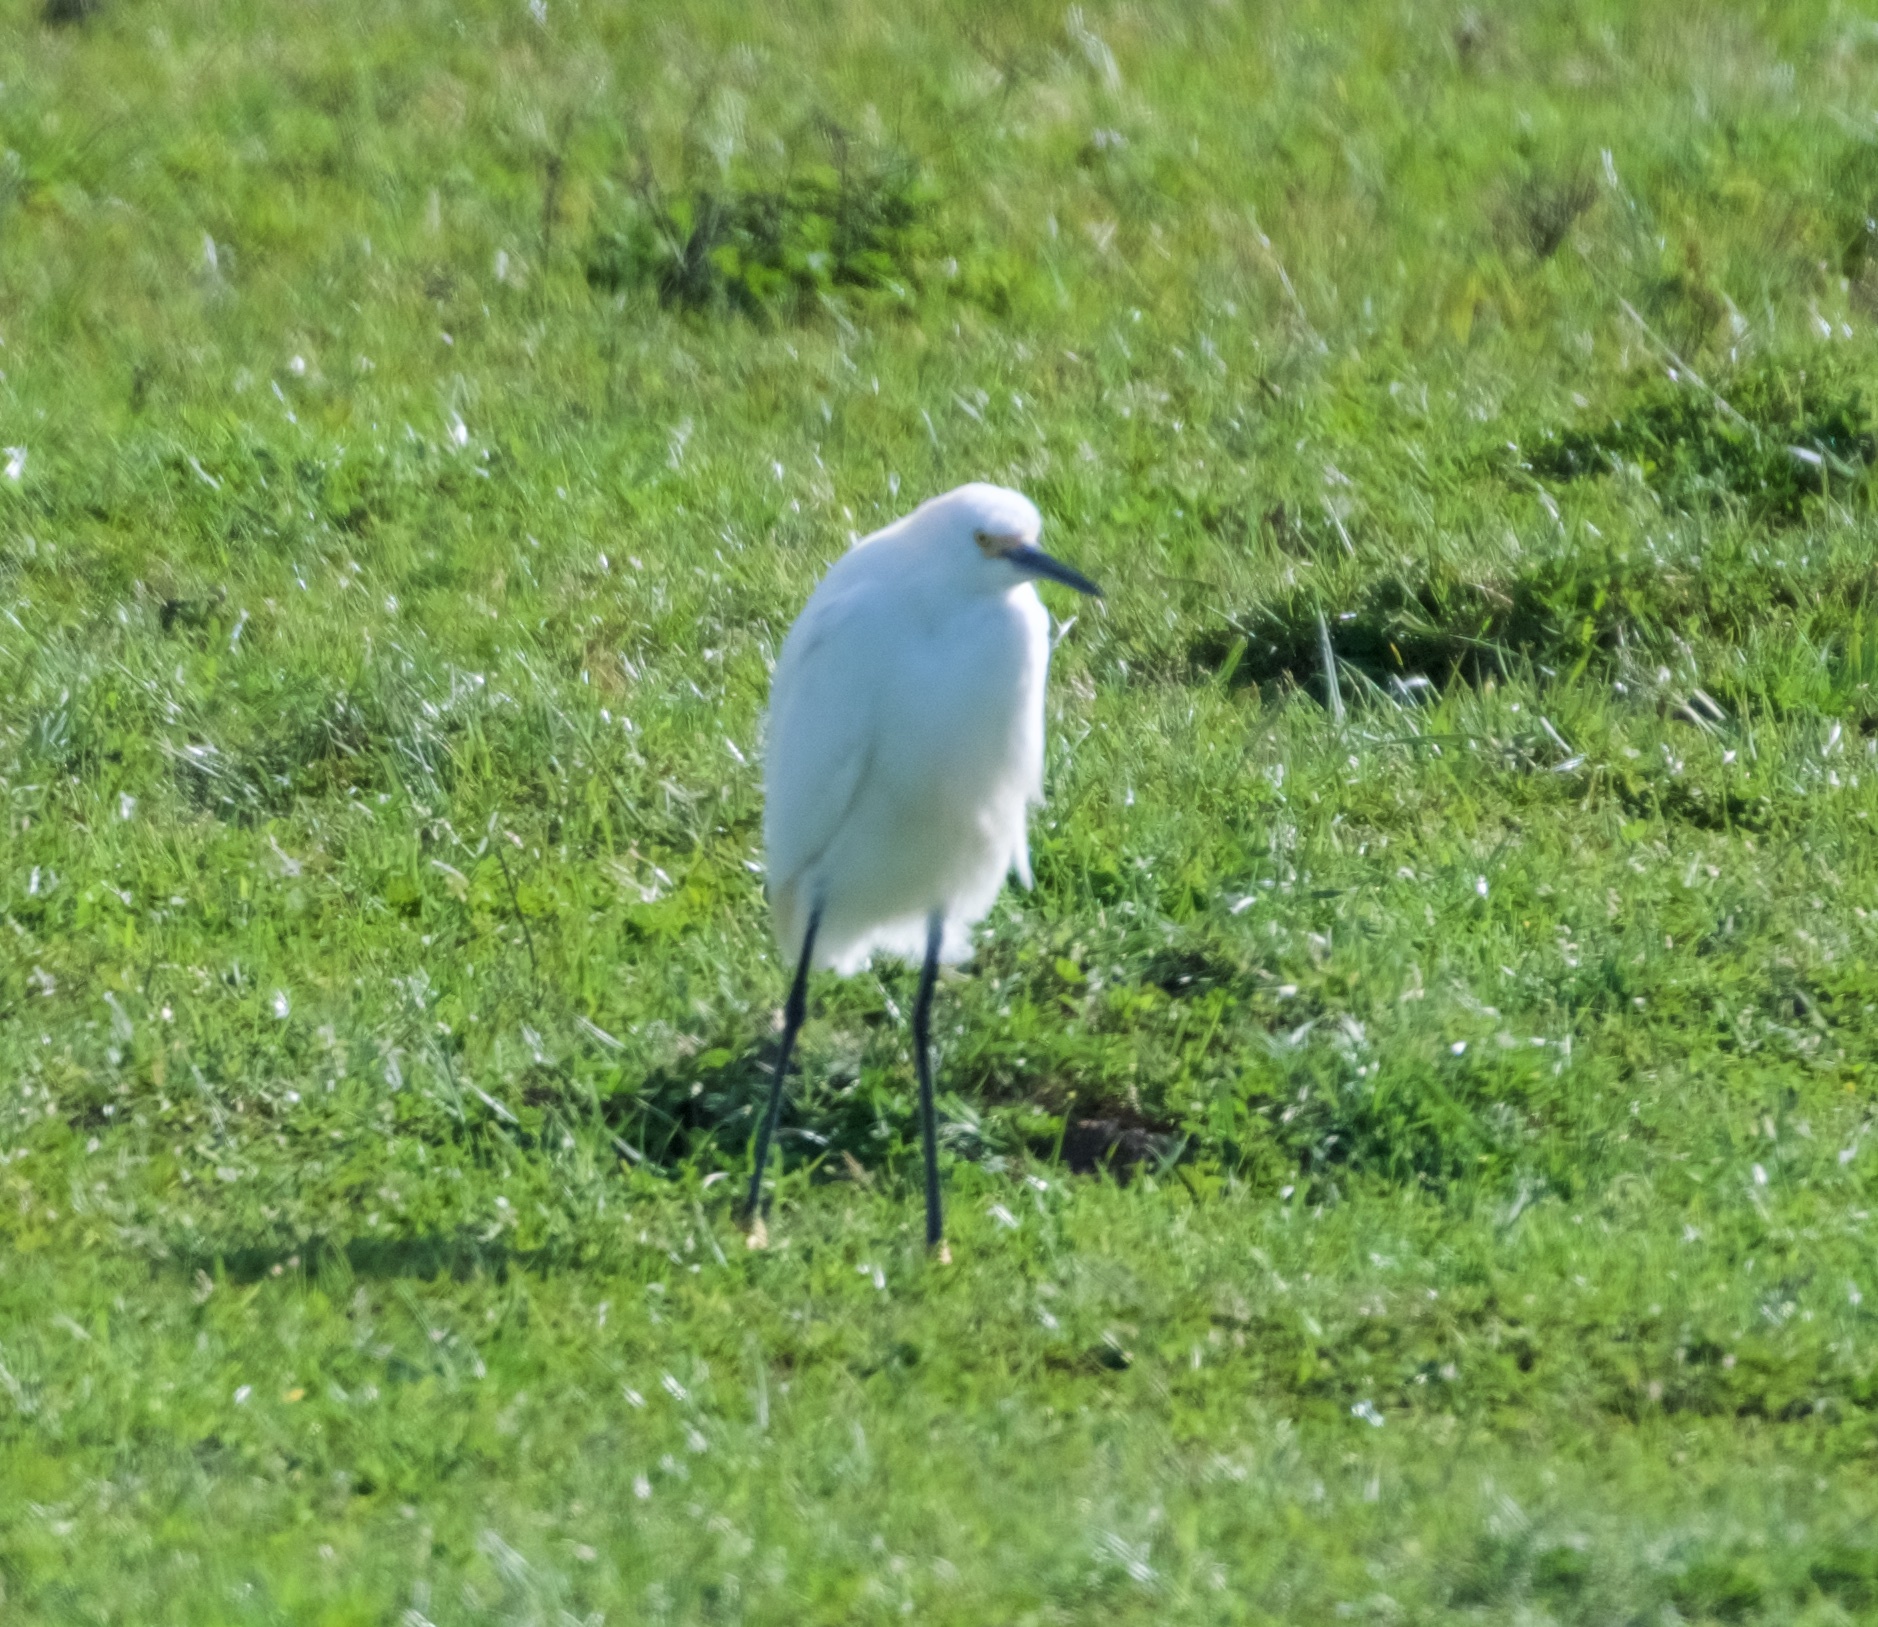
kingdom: Animalia
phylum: Chordata
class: Aves
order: Pelecaniformes
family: Ardeidae
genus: Egretta
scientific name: Egretta thula
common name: Snowy egret
